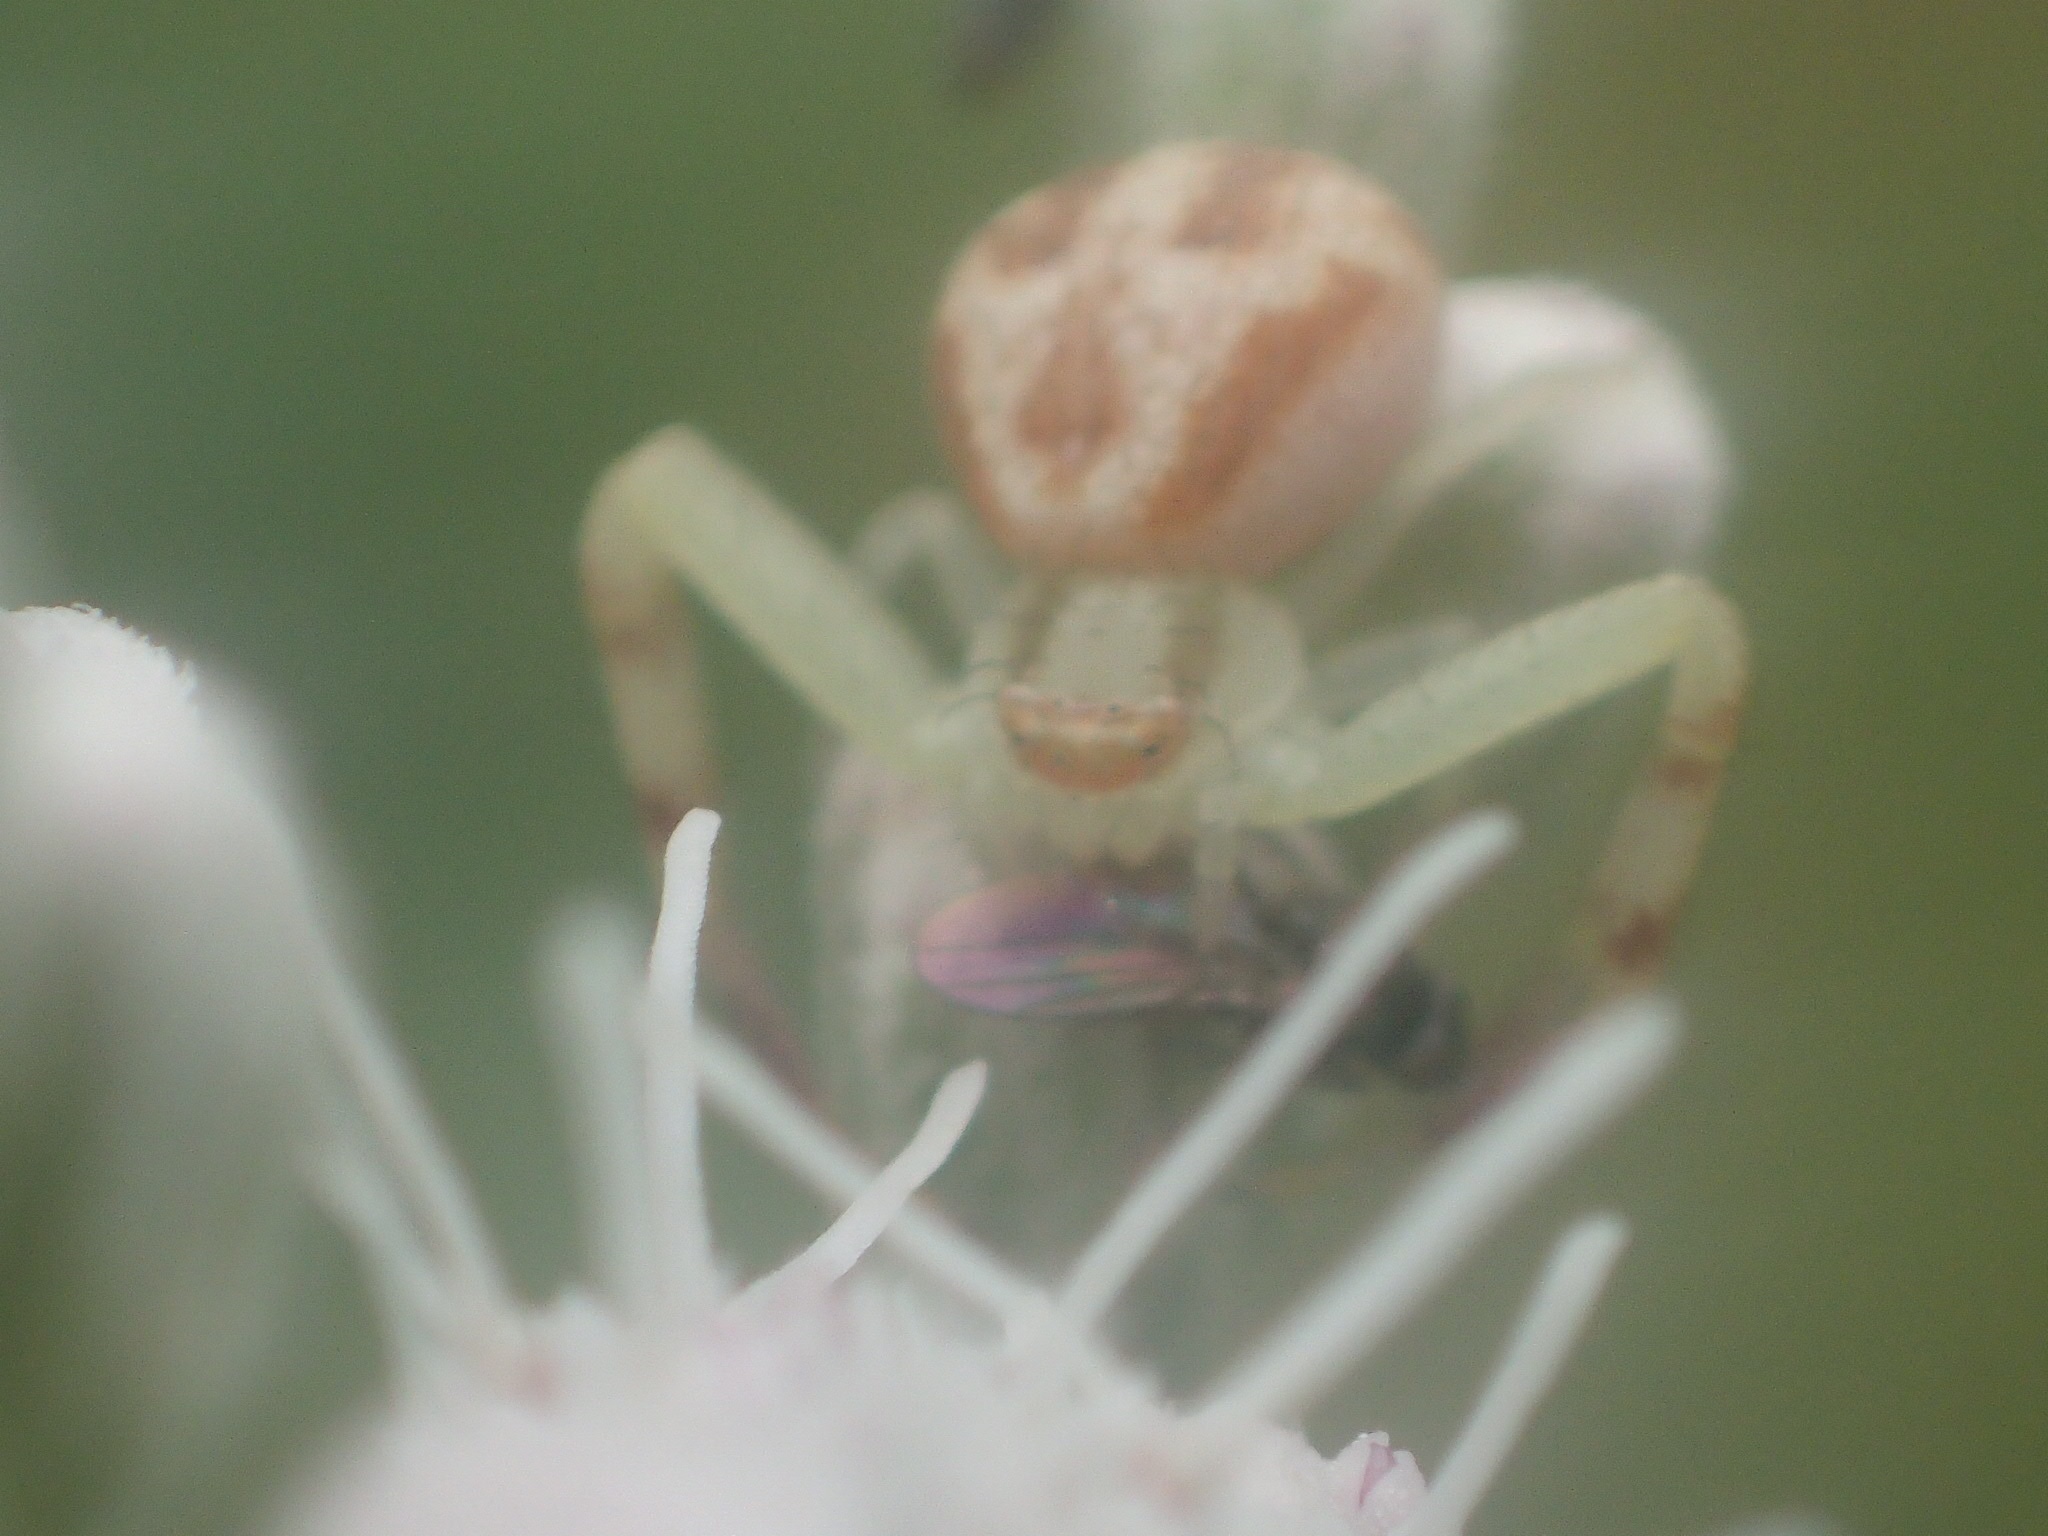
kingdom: Animalia
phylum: Arthropoda
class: Arachnida
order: Araneae
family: Thomisidae
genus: Mecaphesa
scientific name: Mecaphesa asperata
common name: Crab spiders
